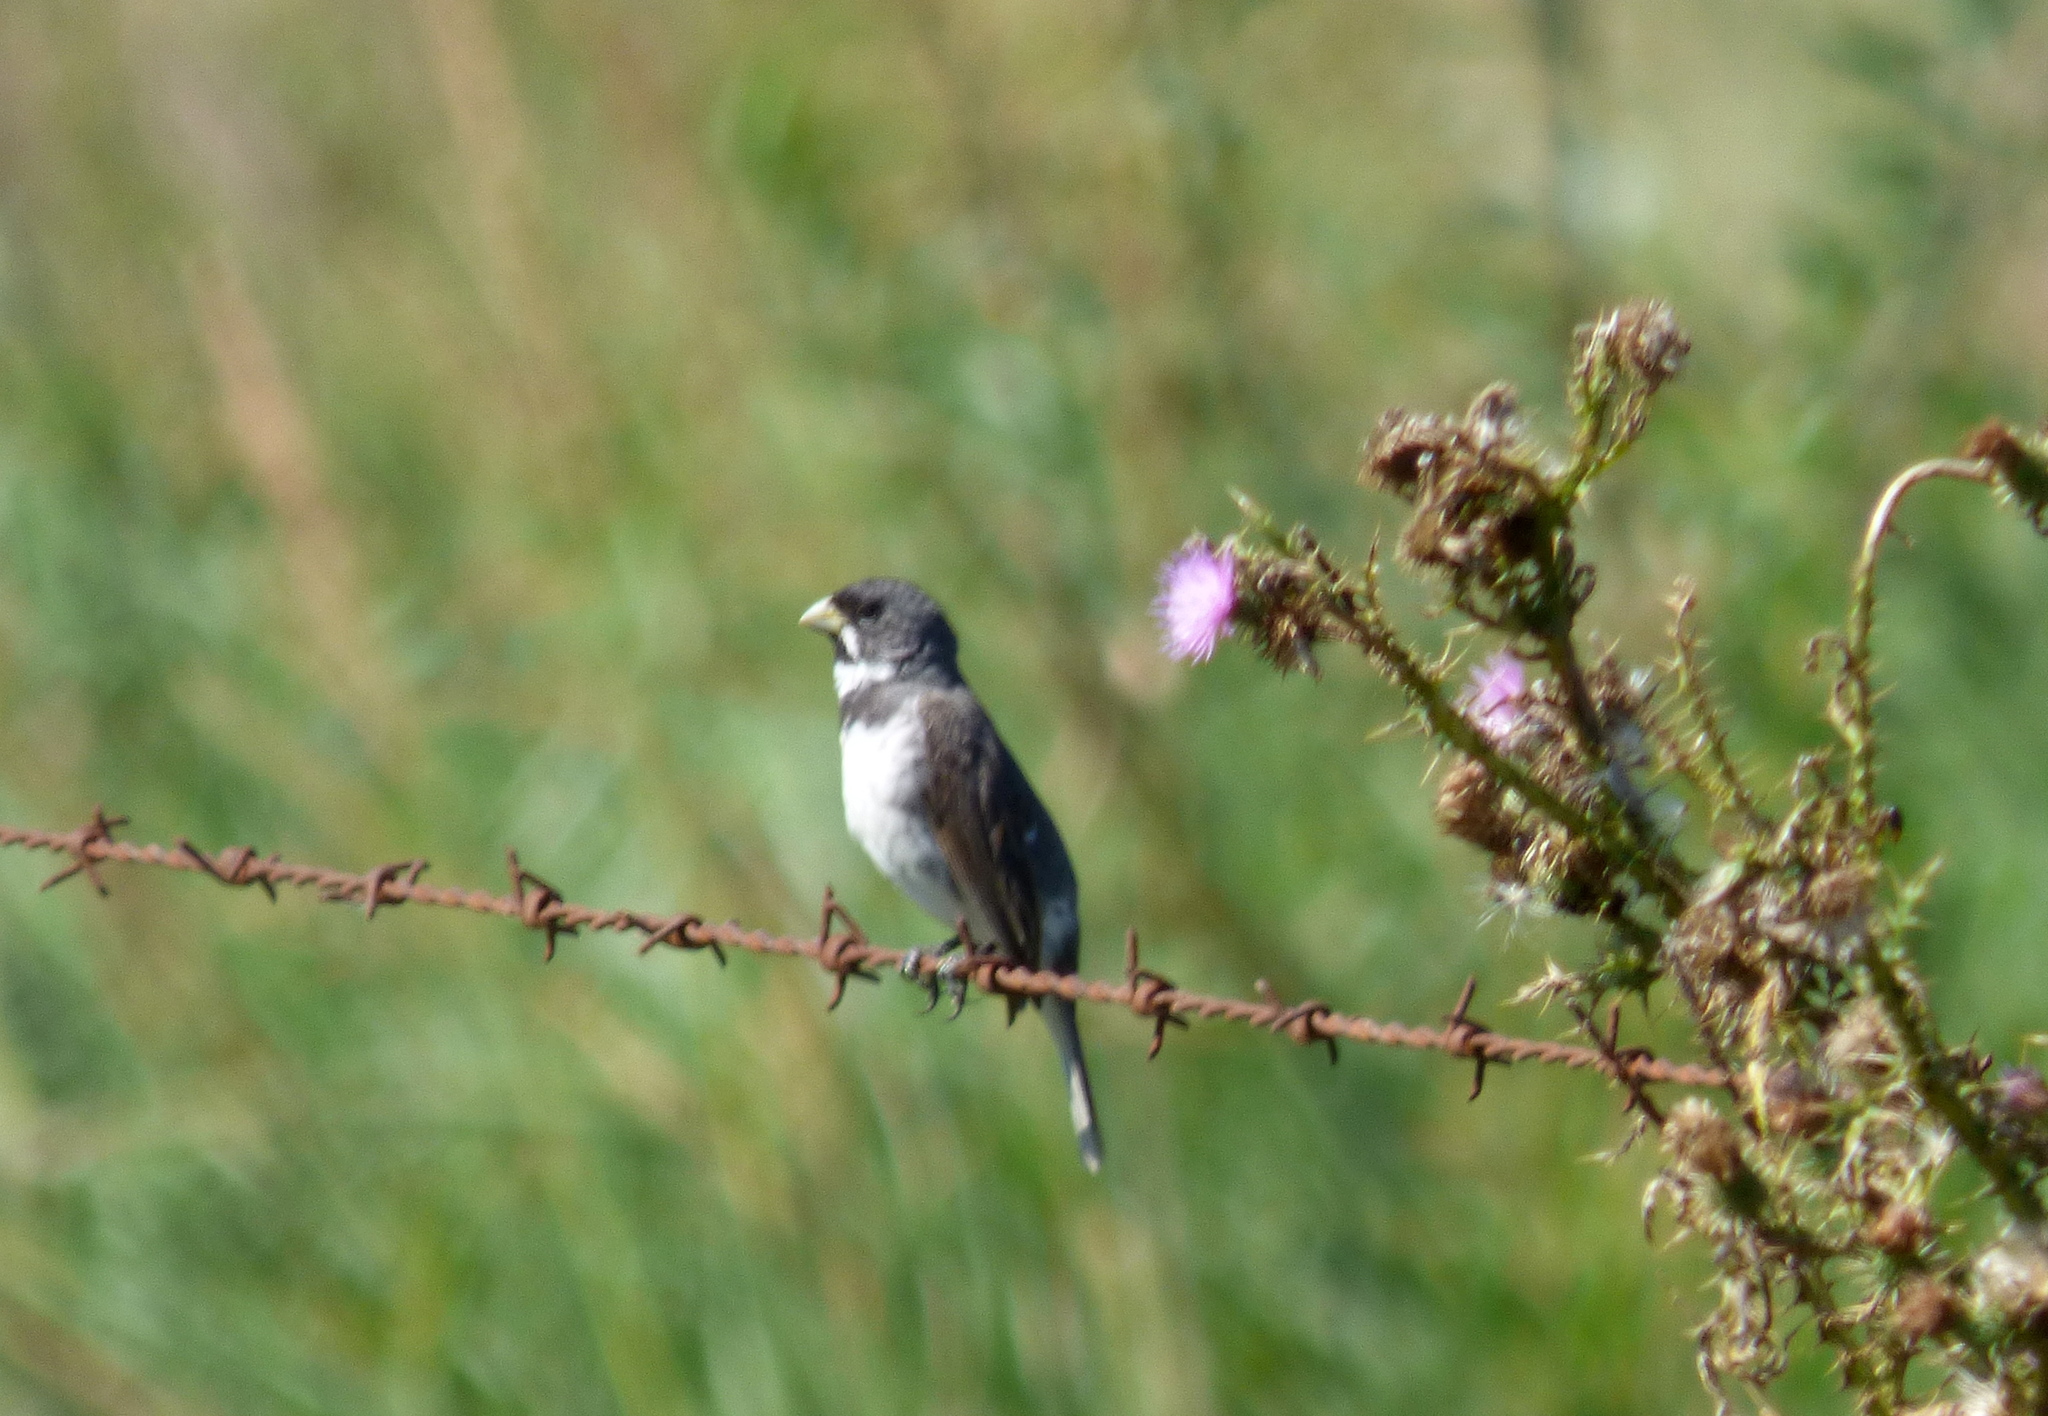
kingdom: Animalia
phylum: Chordata
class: Aves
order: Passeriformes
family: Thraupidae
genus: Sporophila
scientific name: Sporophila caerulescens
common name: Double-collared seedeater
